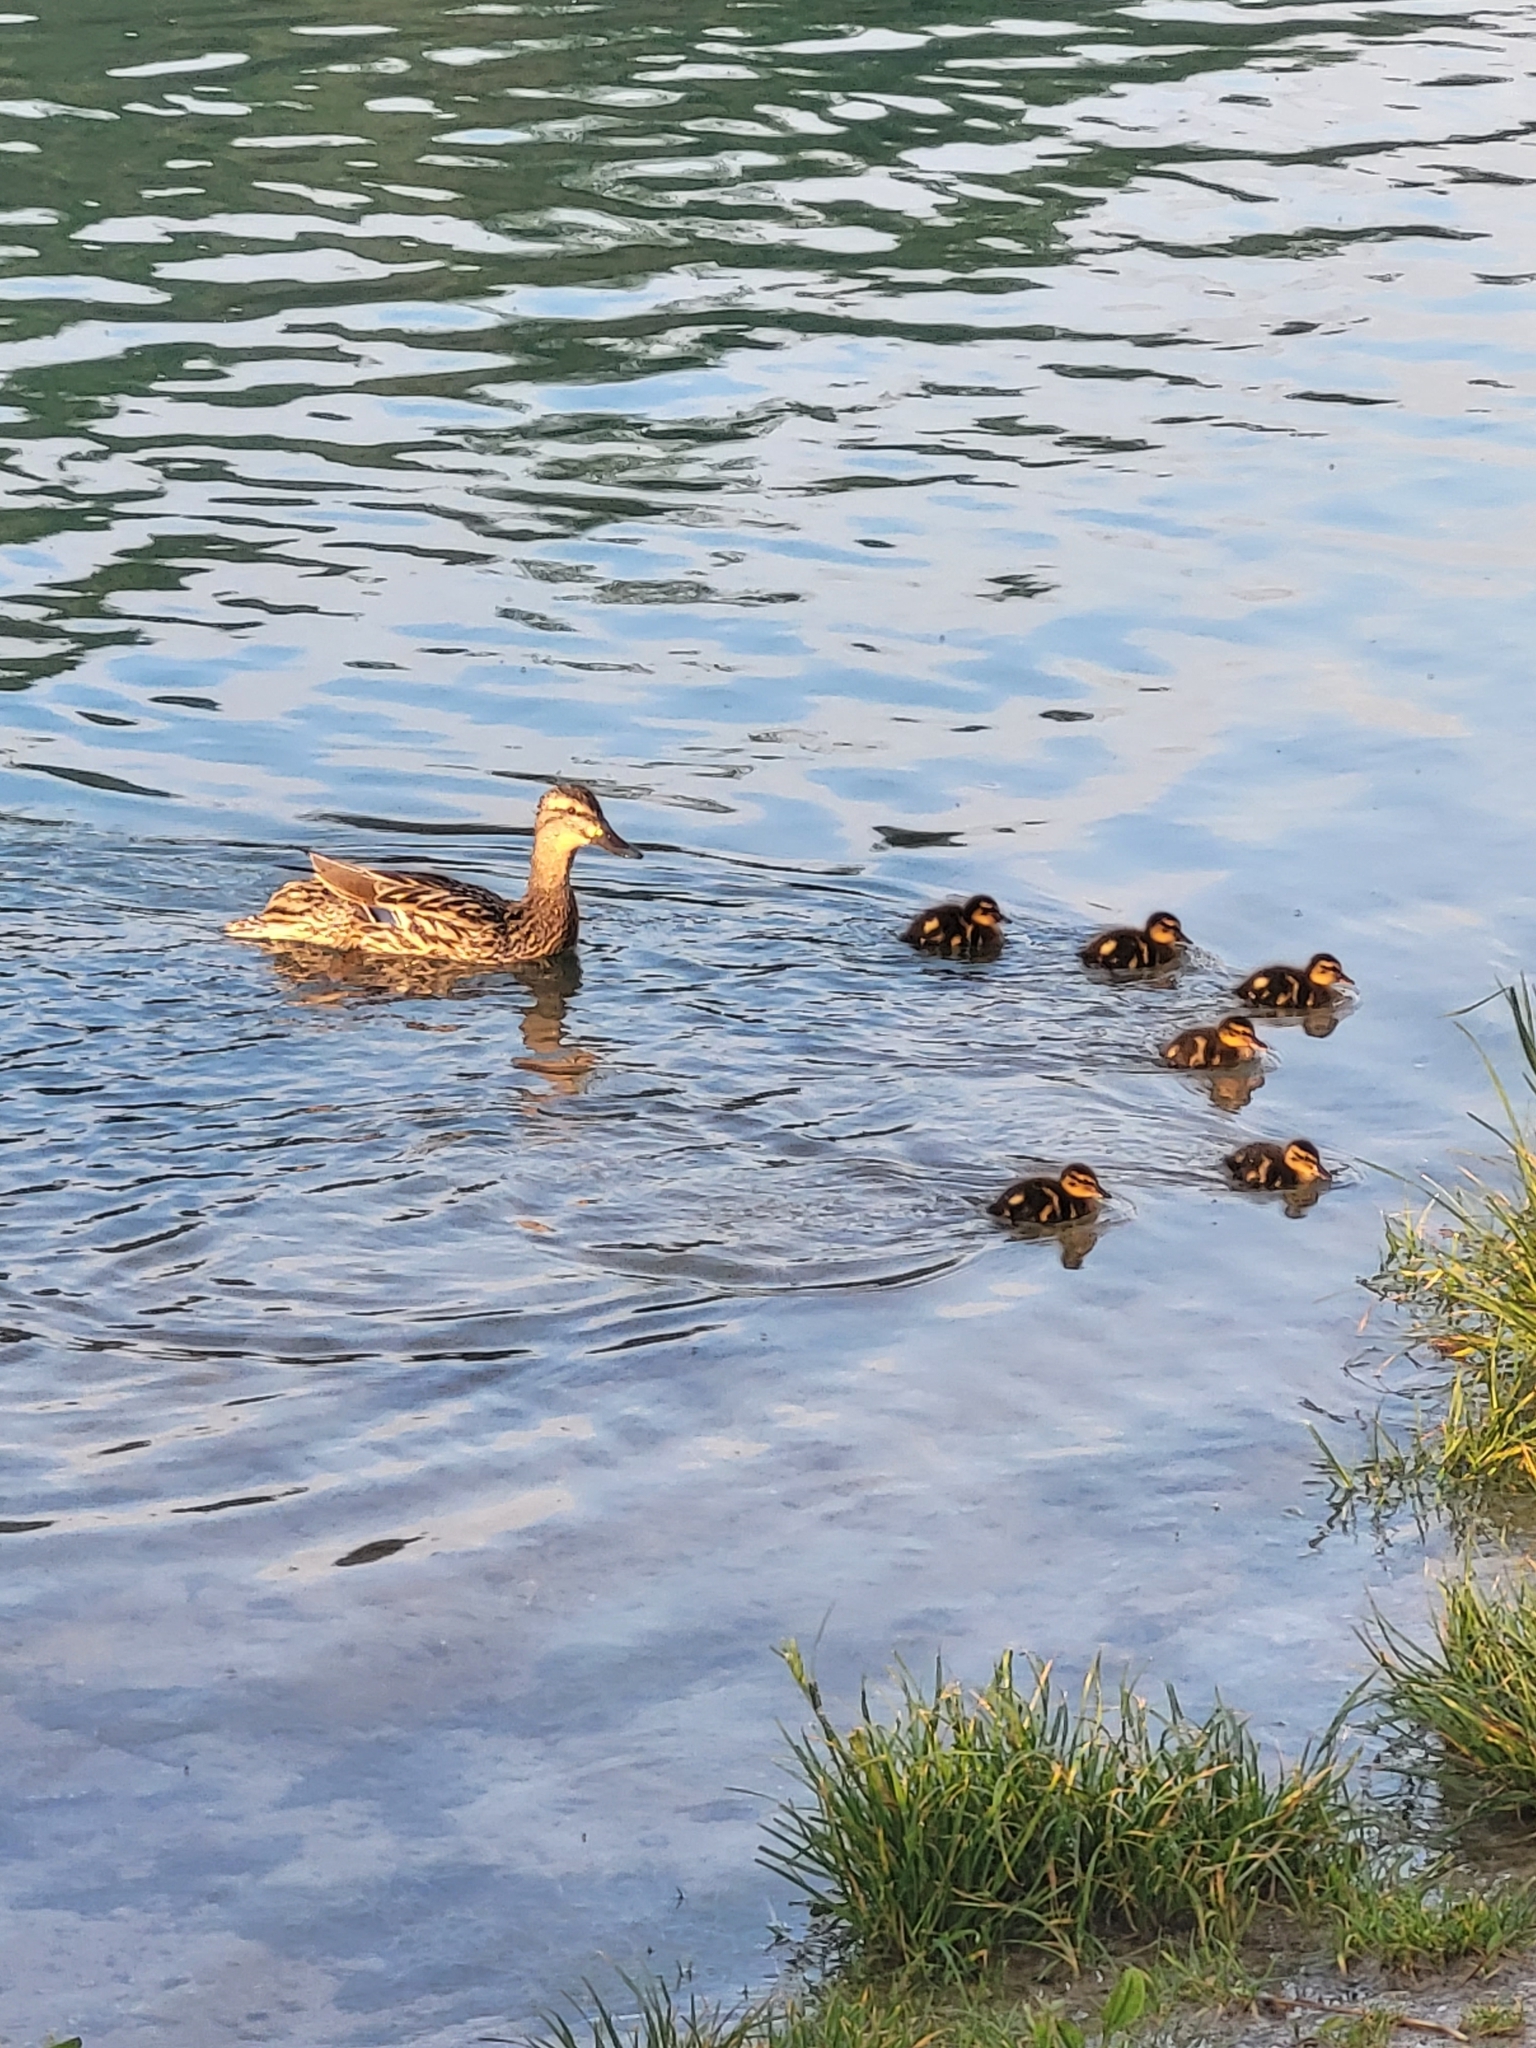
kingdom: Animalia
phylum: Chordata
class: Aves
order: Anseriformes
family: Anatidae
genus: Anas
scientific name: Anas platyrhynchos
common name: Mallard
